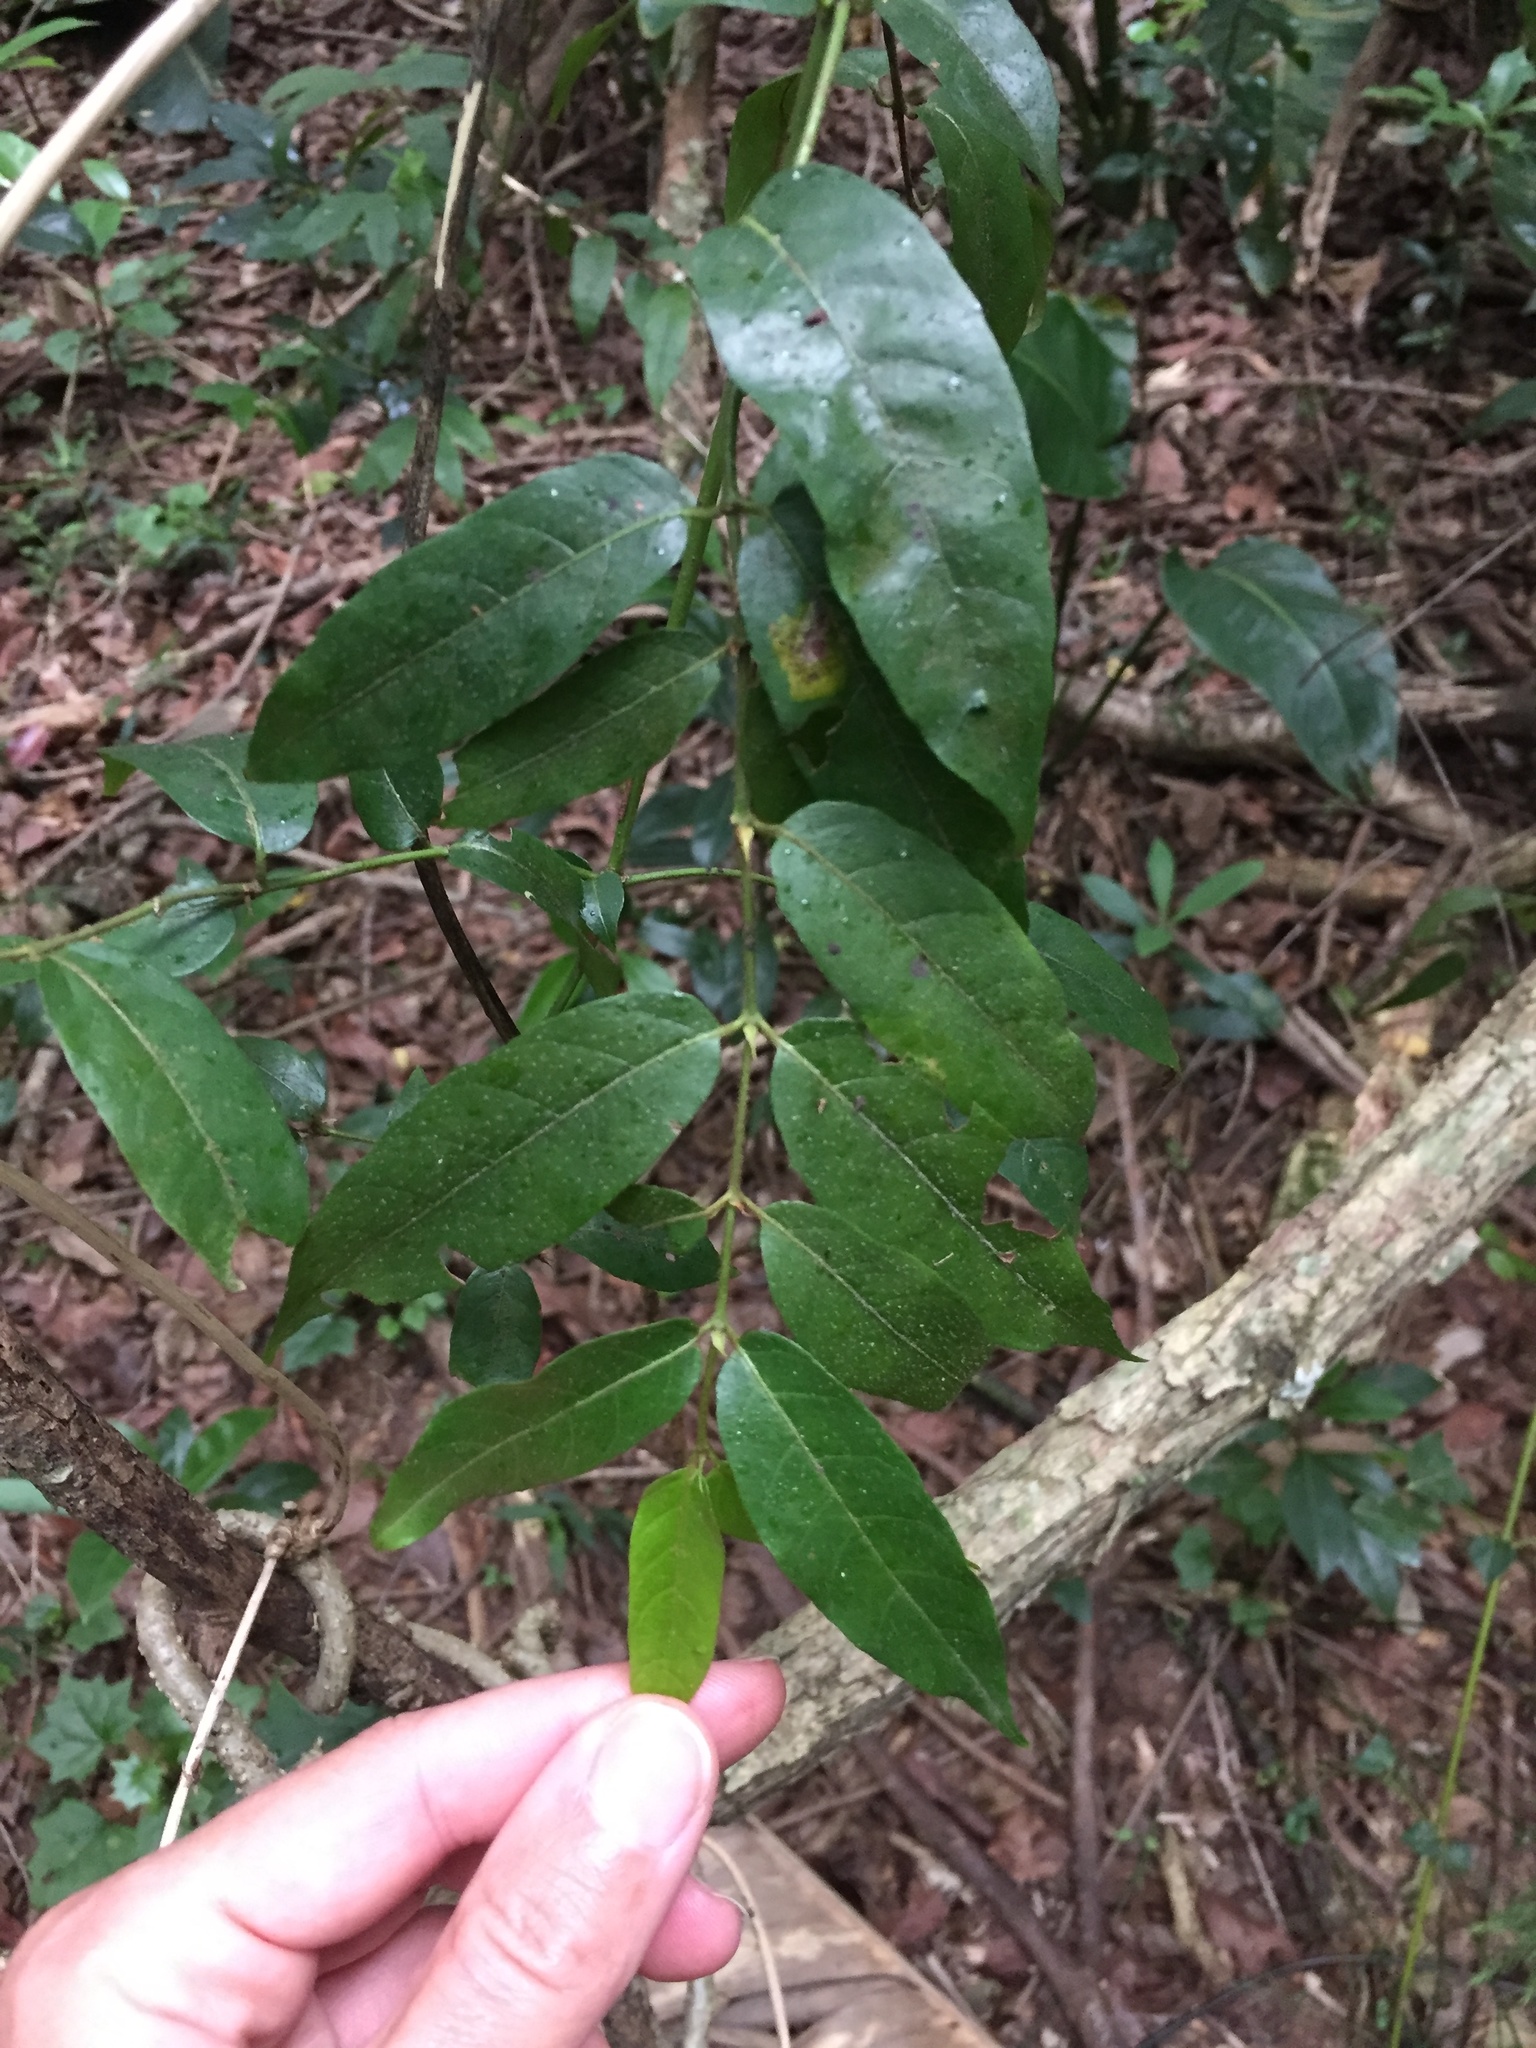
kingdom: Plantae
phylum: Tracheophyta
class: Magnoliopsida
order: Gentianales
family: Rubiaceae
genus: Keetia
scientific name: Keetia gueinzii
